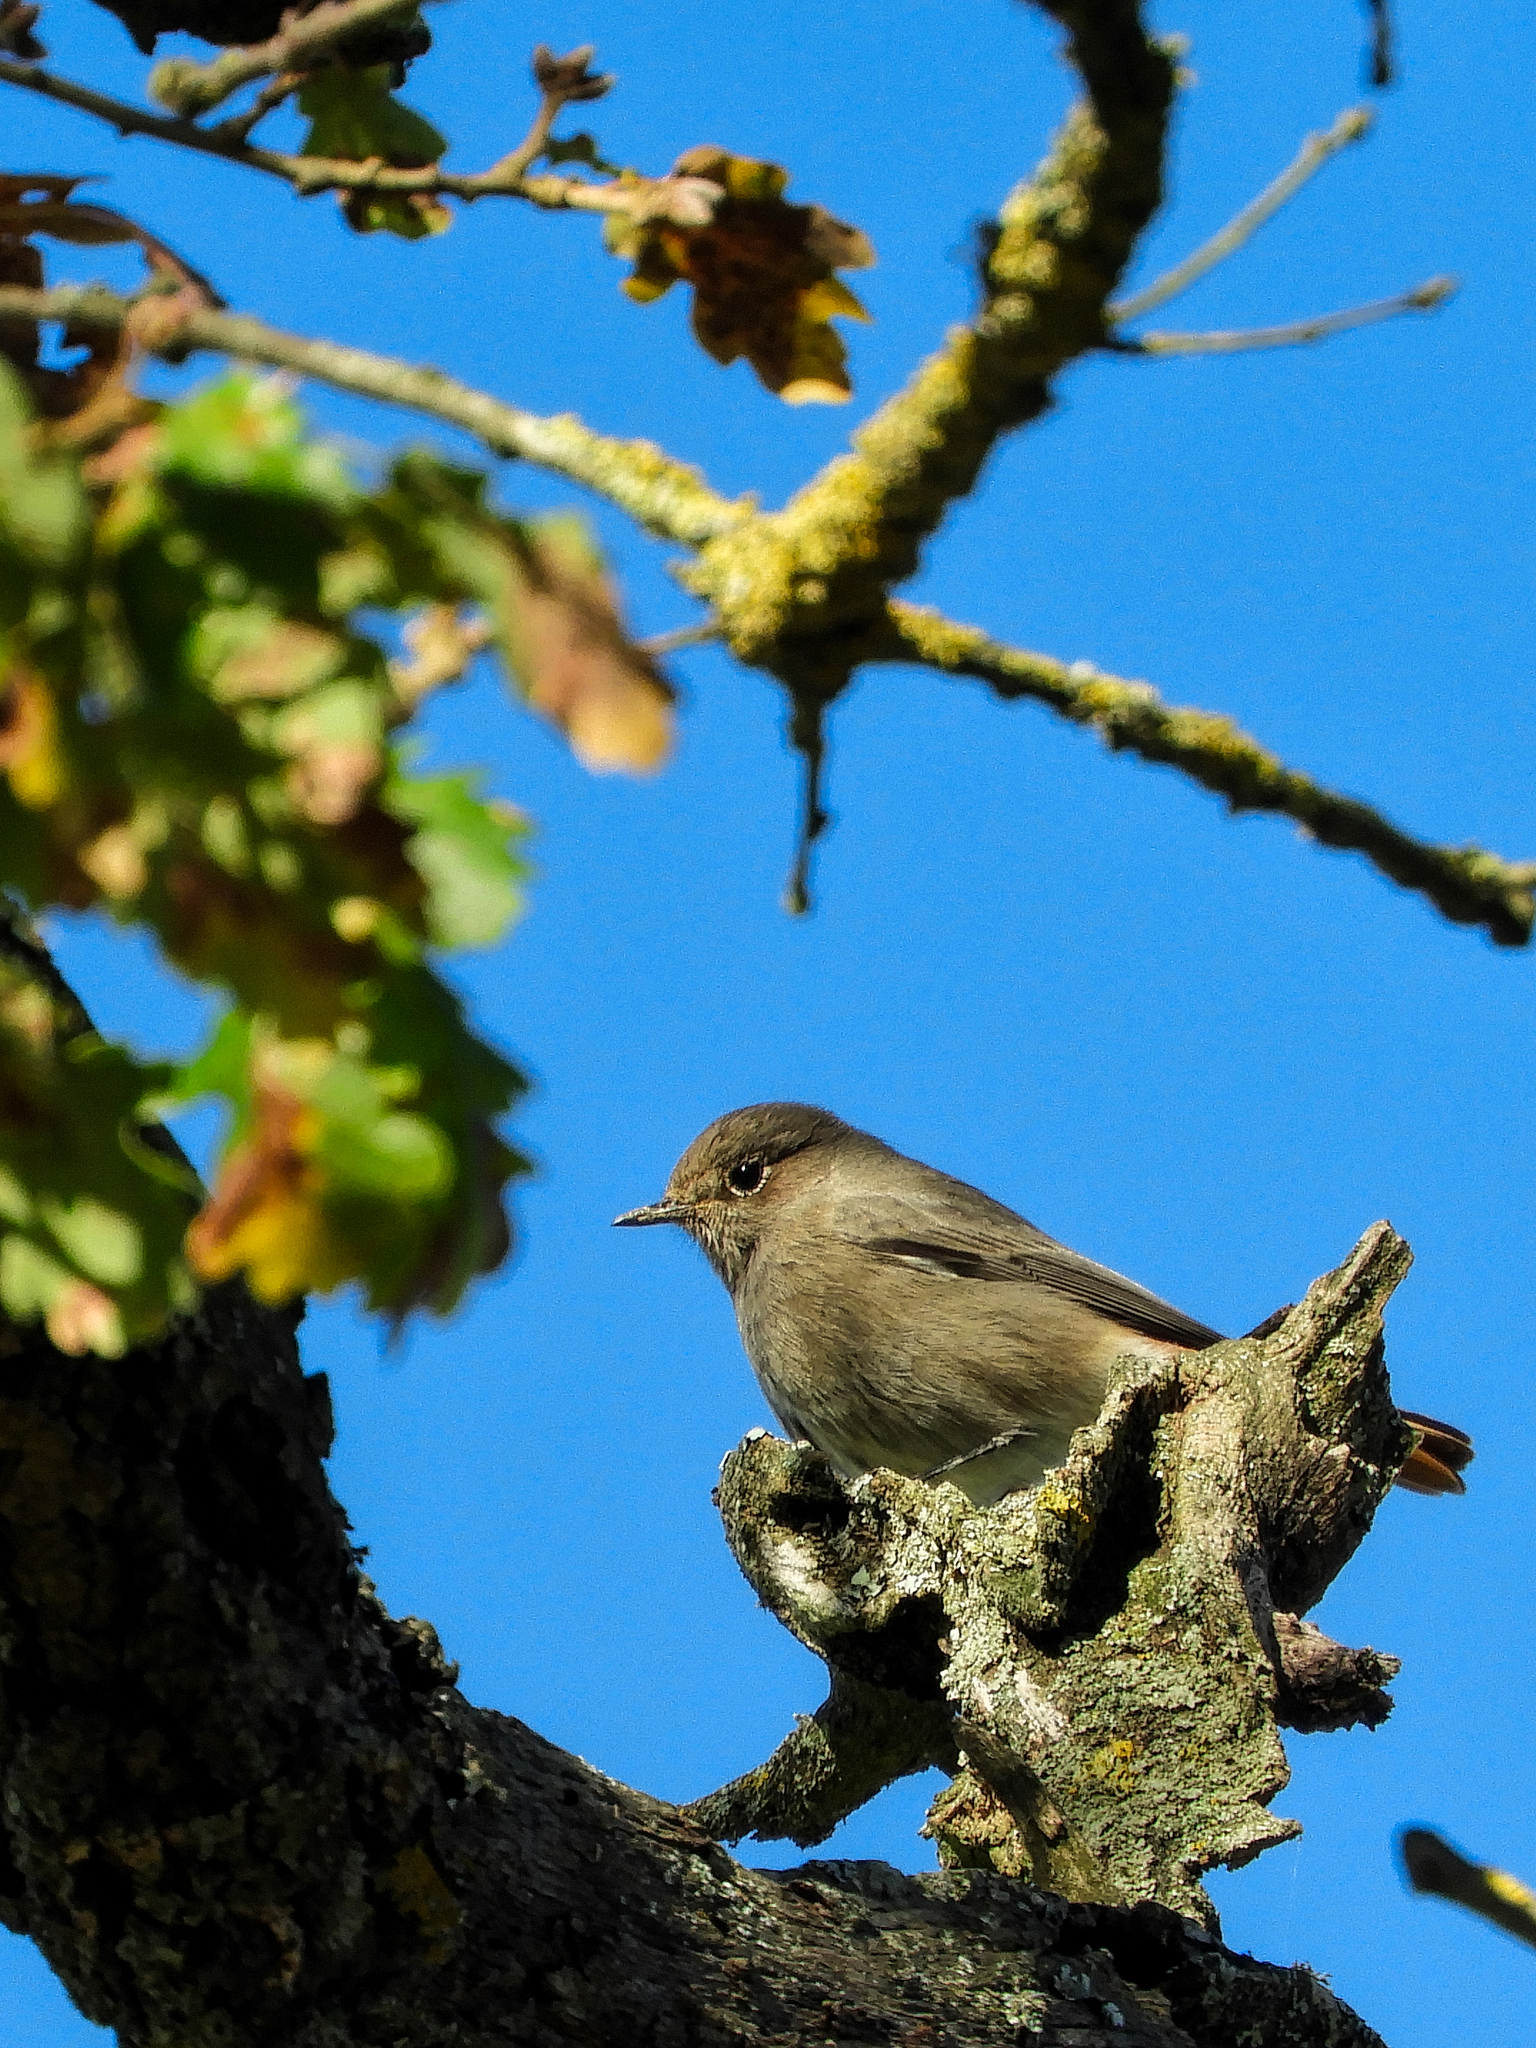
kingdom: Animalia
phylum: Chordata
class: Aves
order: Passeriformes
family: Muscicapidae
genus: Phoenicurus
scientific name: Phoenicurus ochruros
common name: Black redstart
